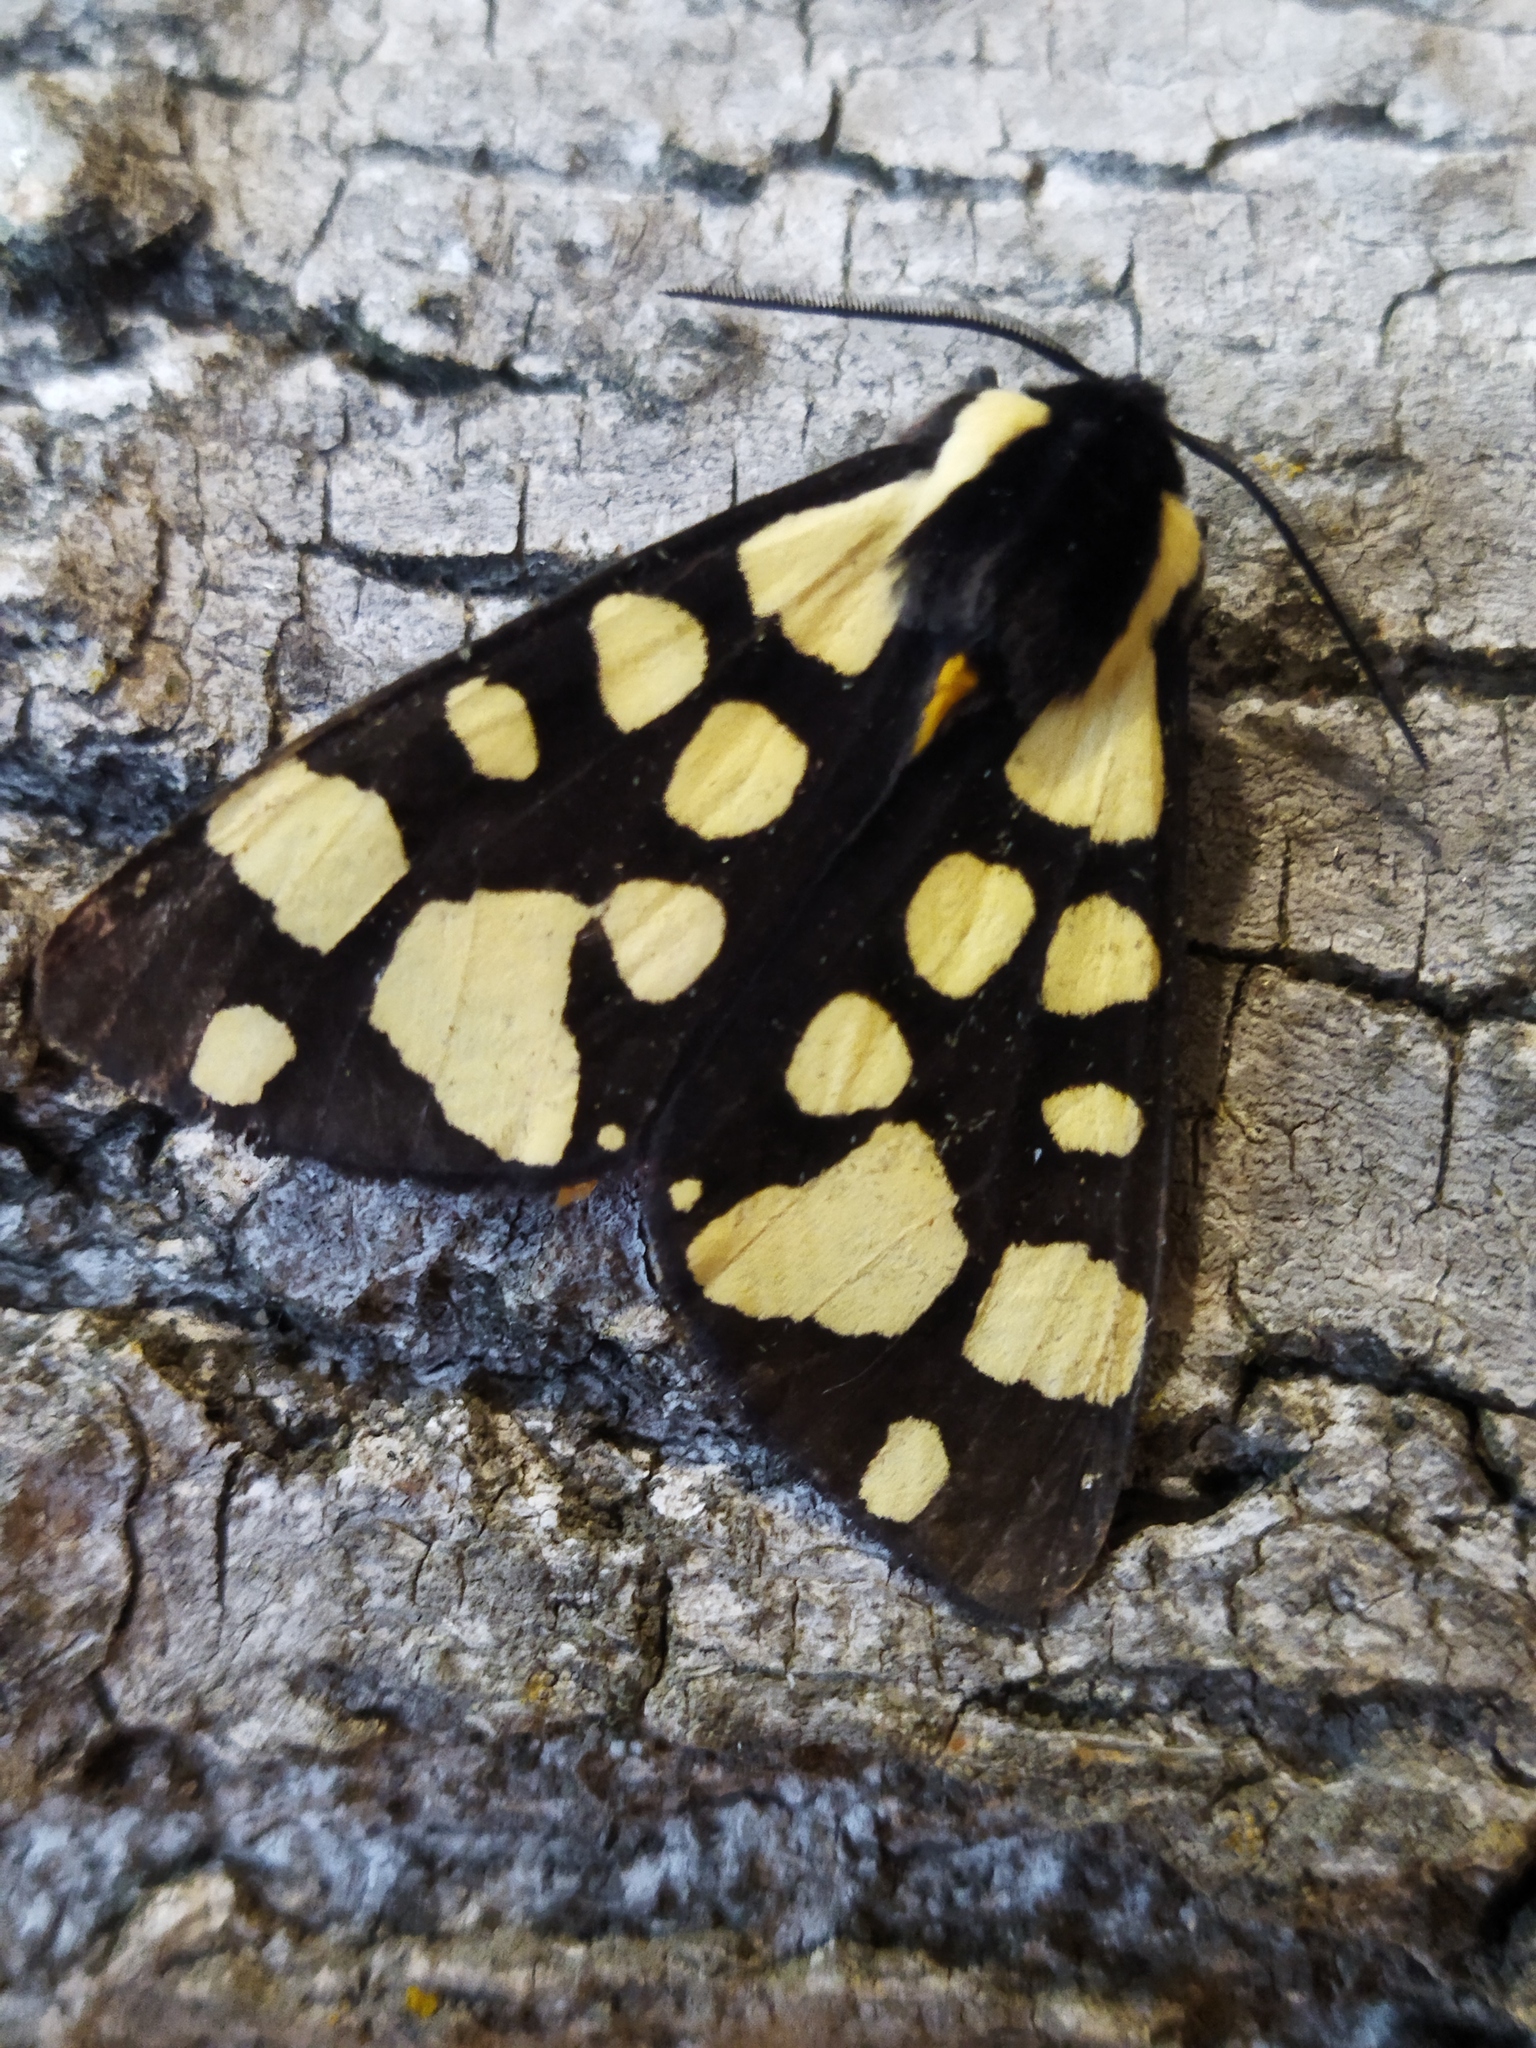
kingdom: Animalia
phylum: Arthropoda
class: Insecta
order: Lepidoptera
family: Erebidae
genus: Epicallia
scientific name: Epicallia villica
